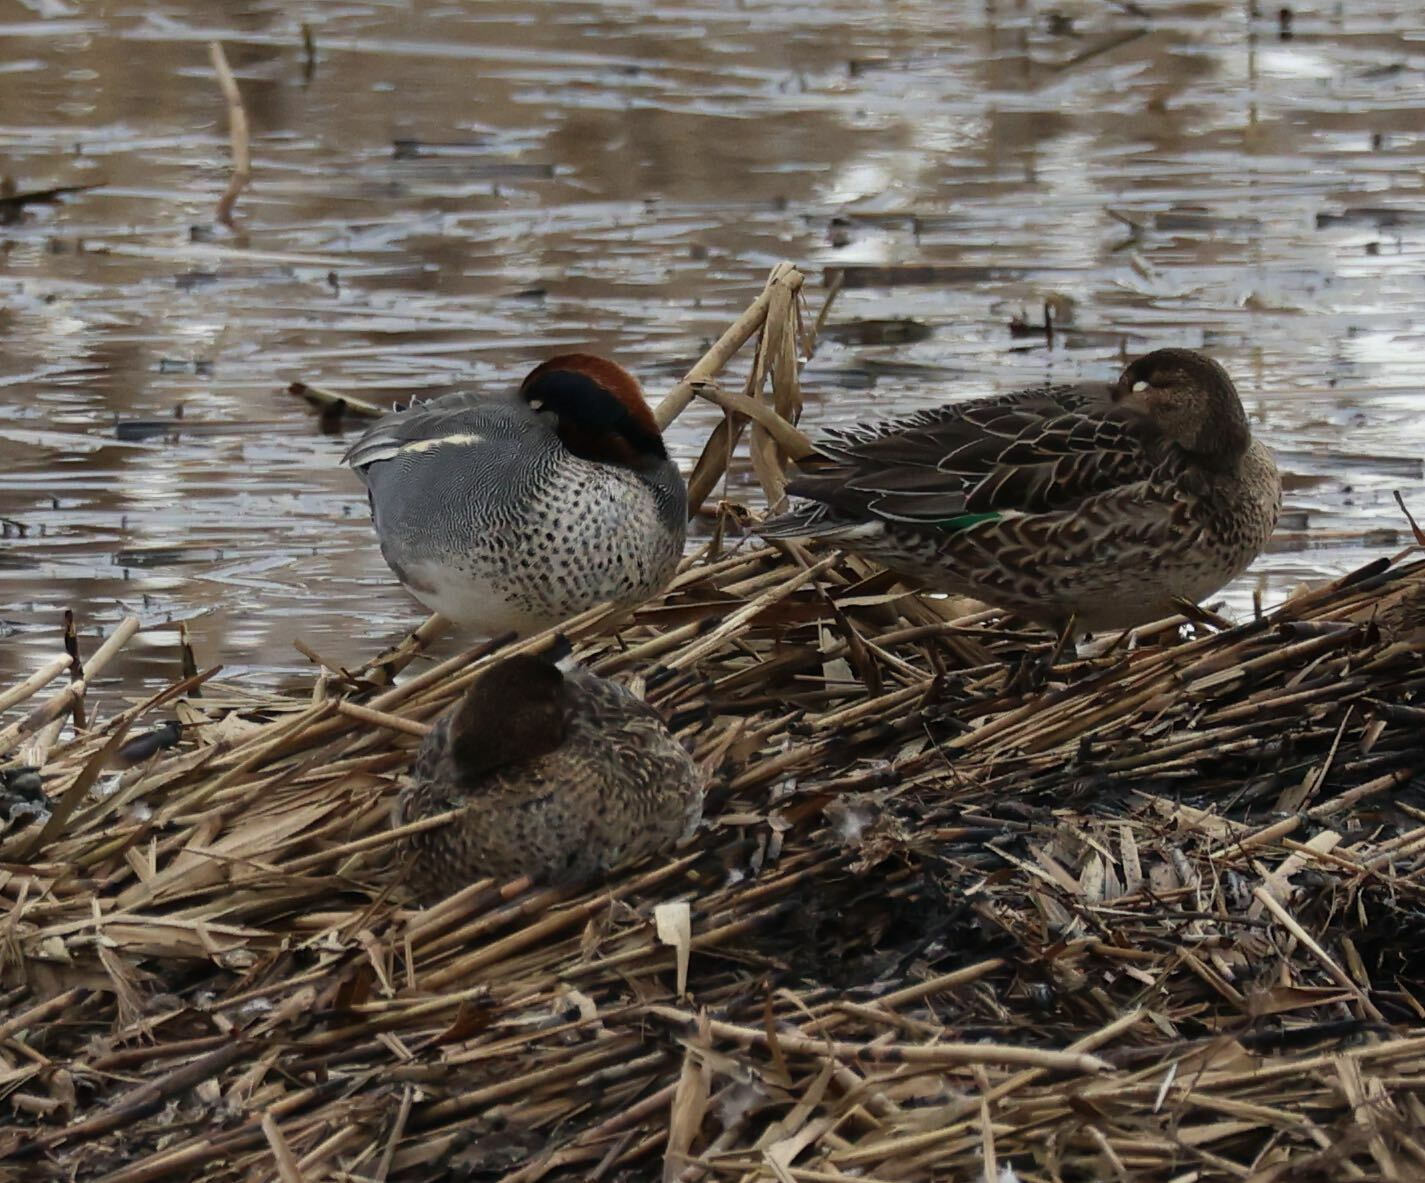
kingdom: Animalia
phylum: Chordata
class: Aves
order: Anseriformes
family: Anatidae
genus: Anas
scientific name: Anas crecca
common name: Eurasian teal
